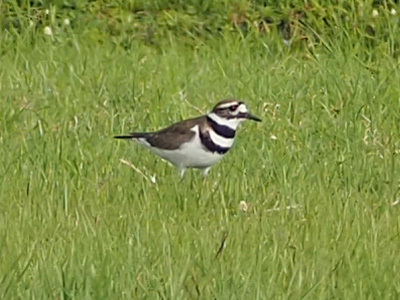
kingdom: Animalia
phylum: Chordata
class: Aves
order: Charadriiformes
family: Charadriidae
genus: Charadrius
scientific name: Charadrius vociferus
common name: Killdeer
